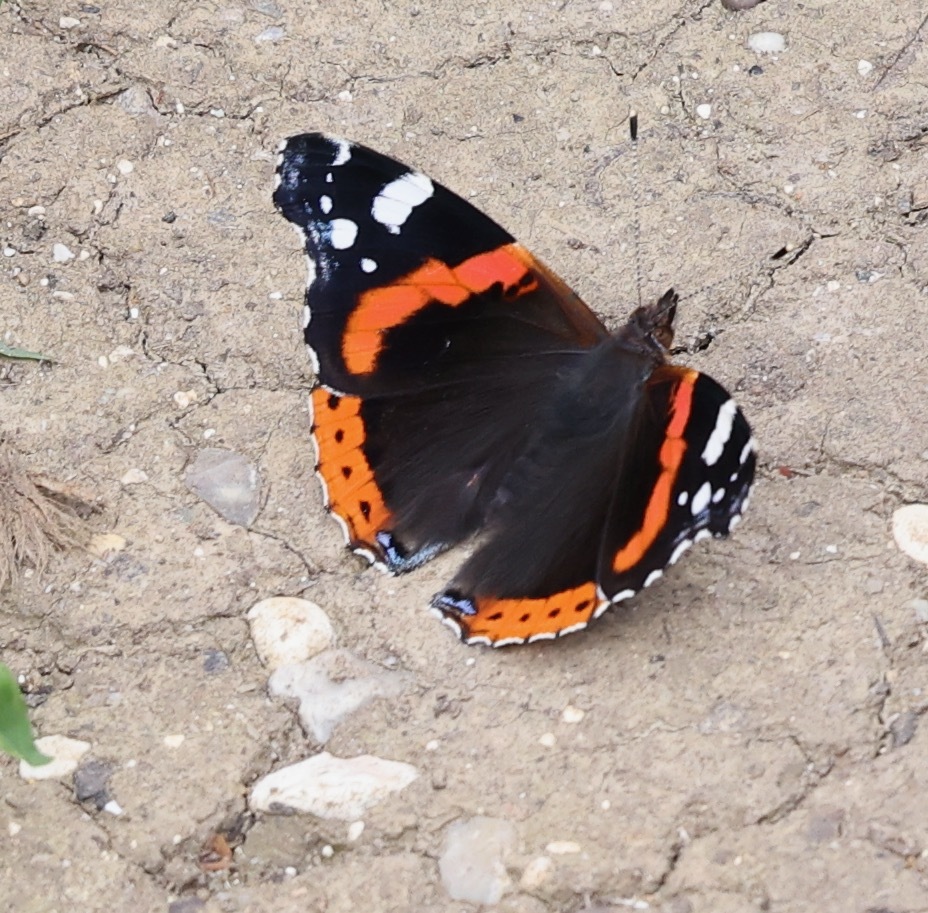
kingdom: Animalia
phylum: Arthropoda
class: Insecta
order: Lepidoptera
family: Nymphalidae
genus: Vanessa
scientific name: Vanessa atalanta
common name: Red admiral
